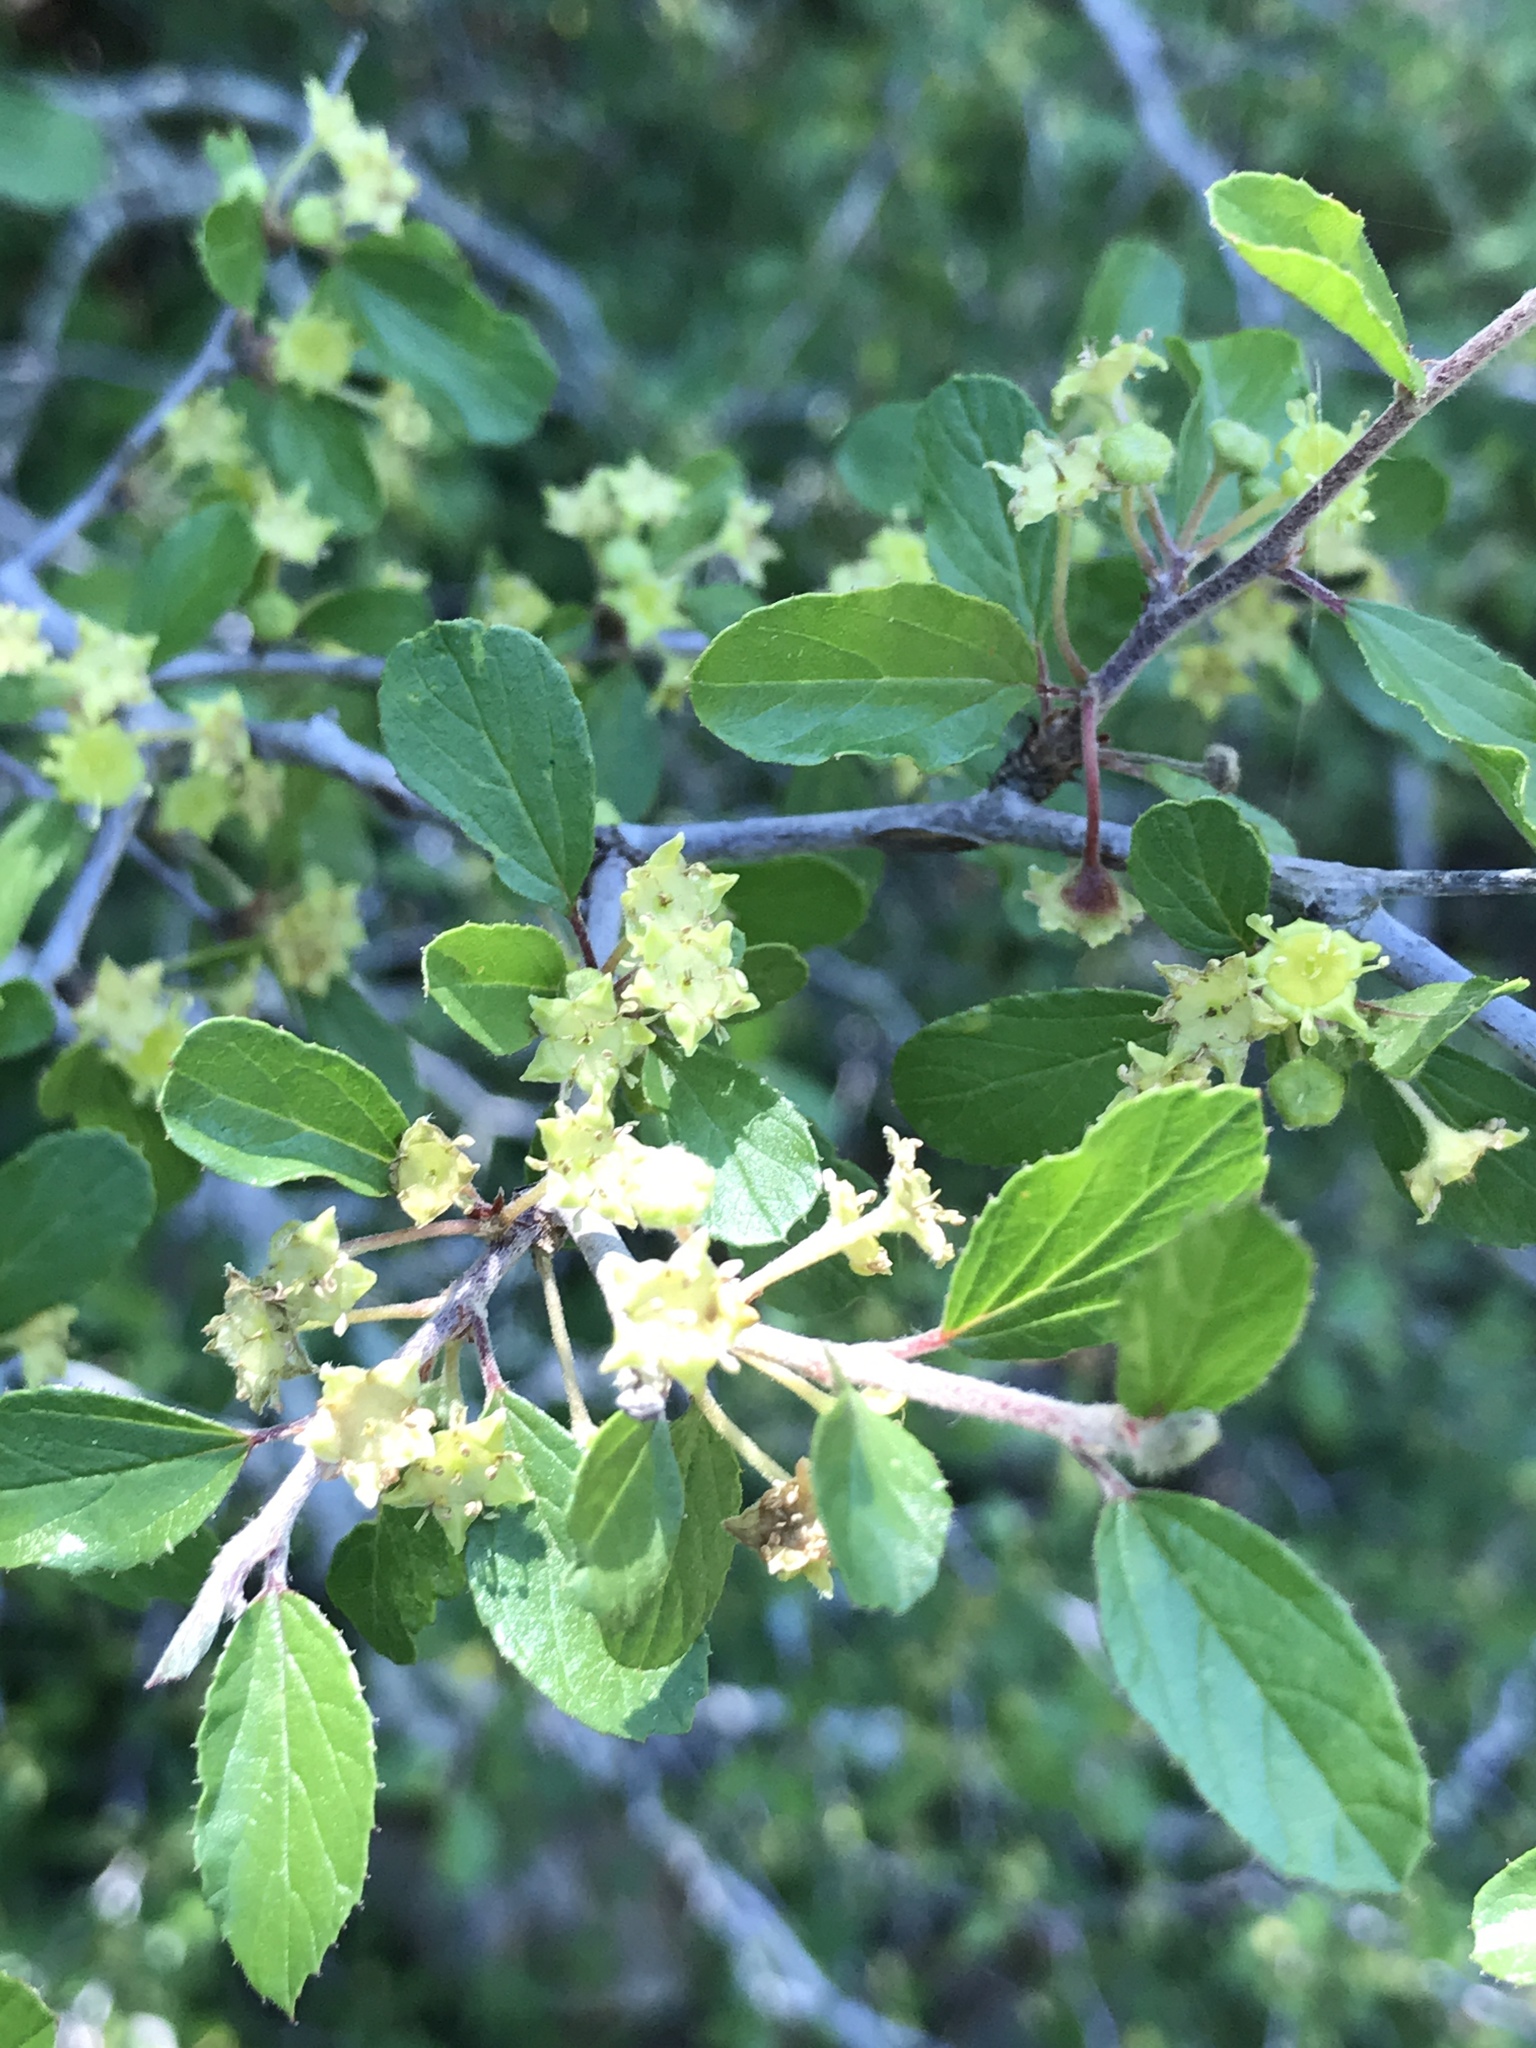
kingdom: Plantae
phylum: Tracheophyta
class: Magnoliopsida
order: Rosales
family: Rhamnaceae
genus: Colubrina
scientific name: Colubrina texensis
